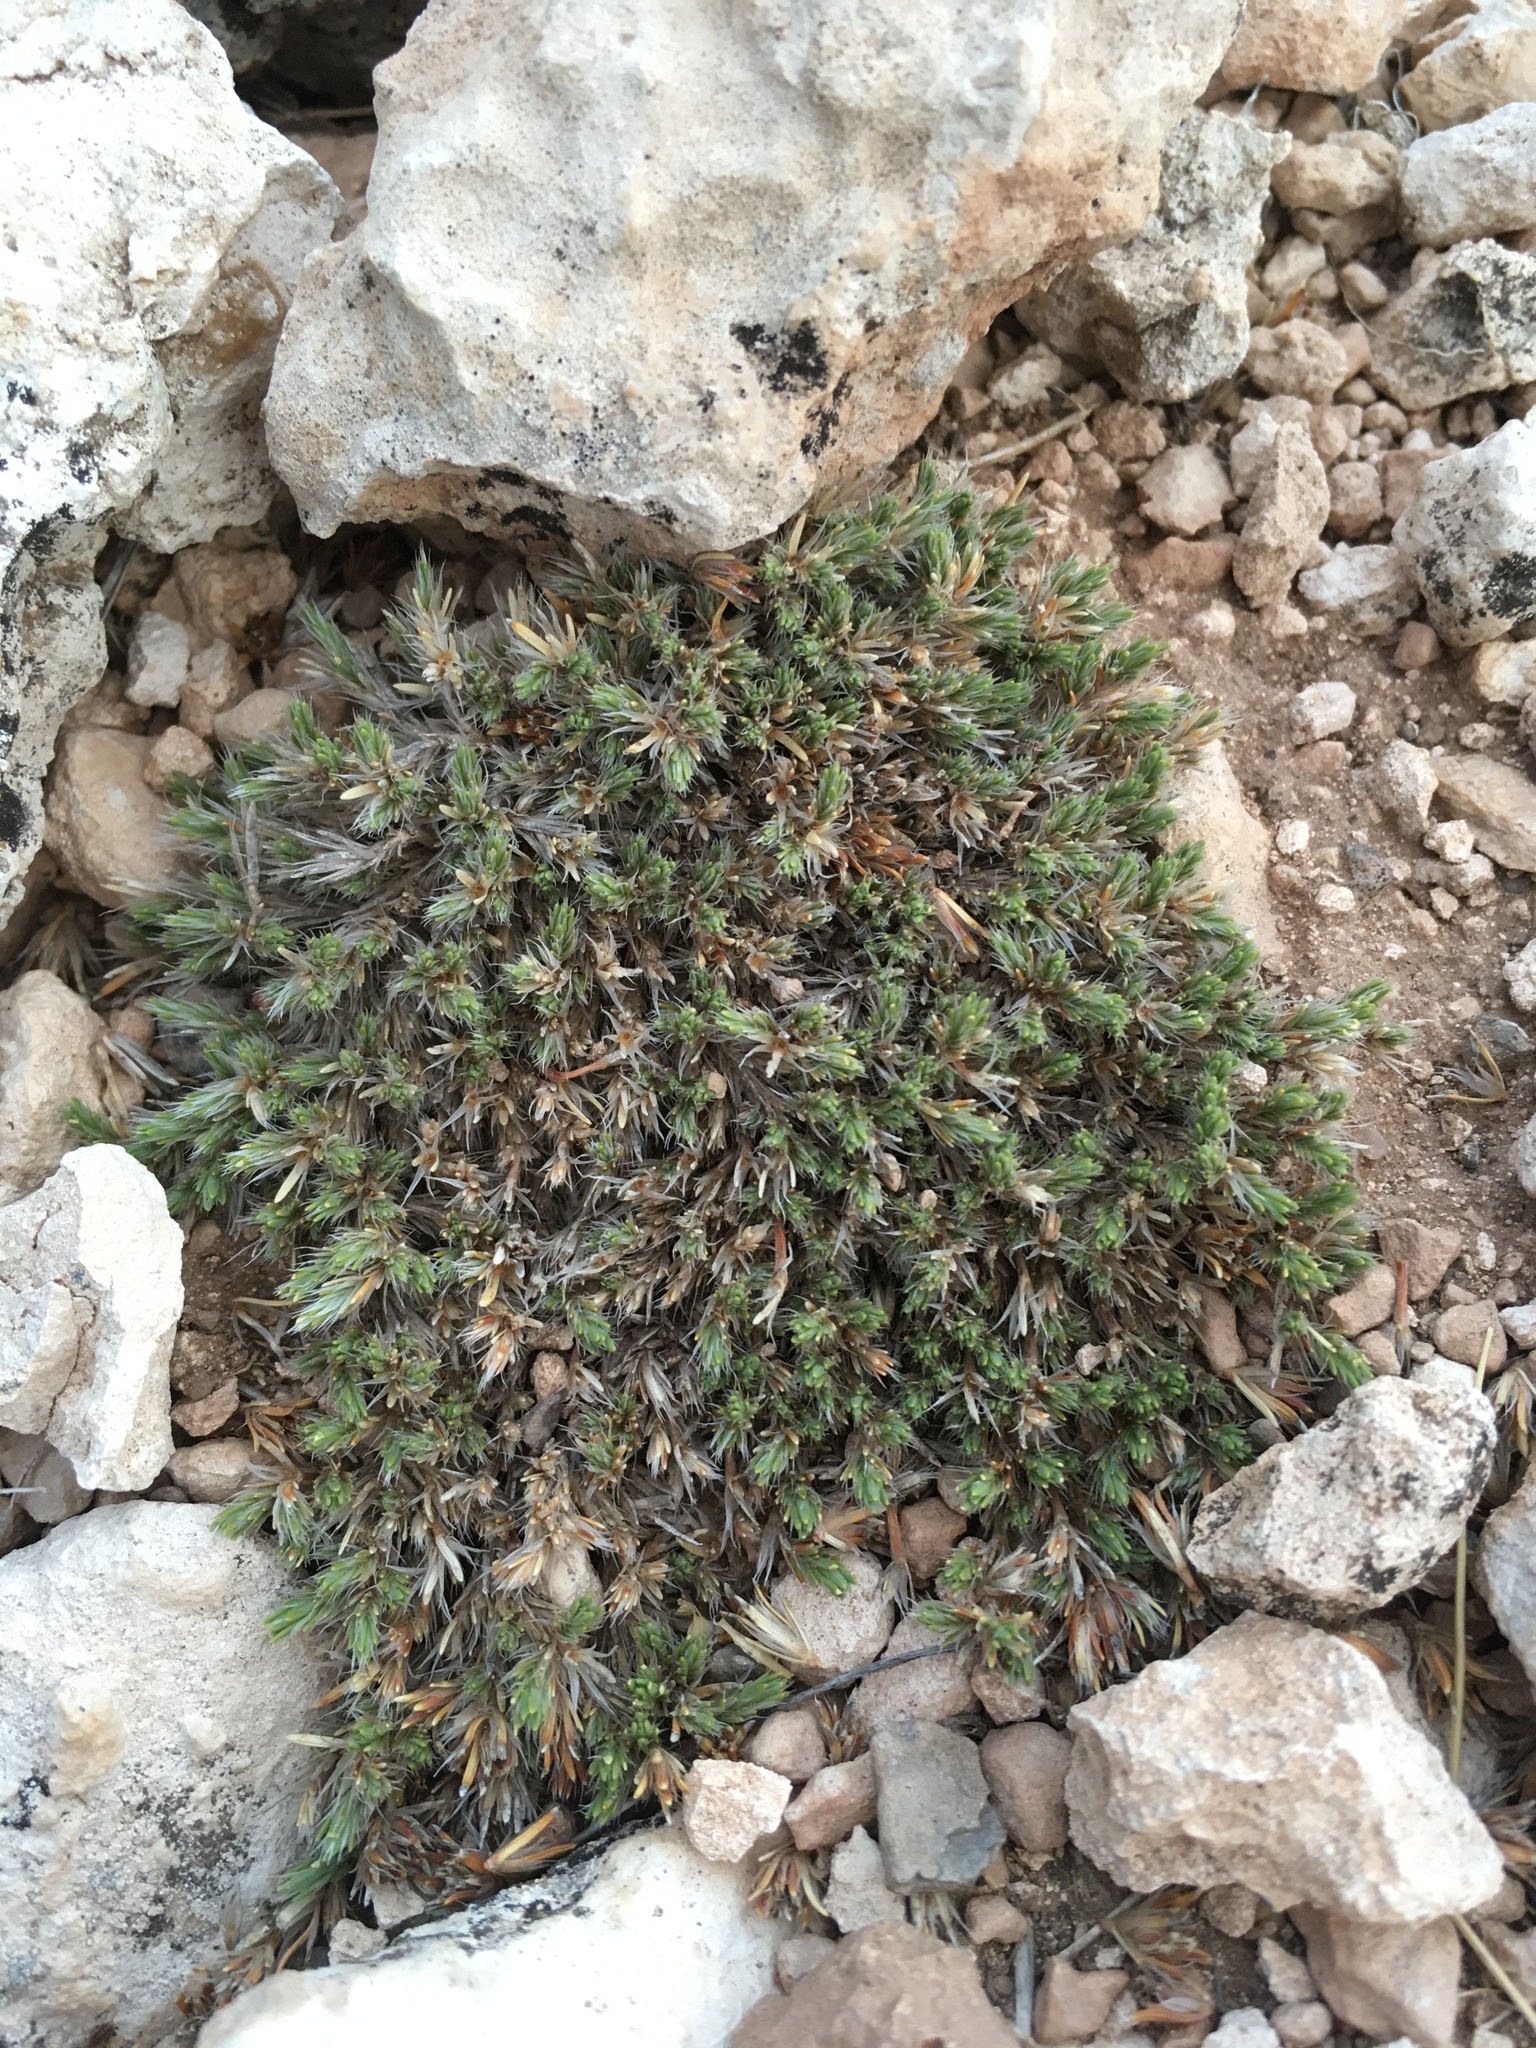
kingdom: Plantae
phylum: Tracheophyta
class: Magnoliopsida
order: Caryophyllales
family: Caryophyllaceae
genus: Paronychia
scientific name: Paronychia sessiliflora
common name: Creeping nailwort
